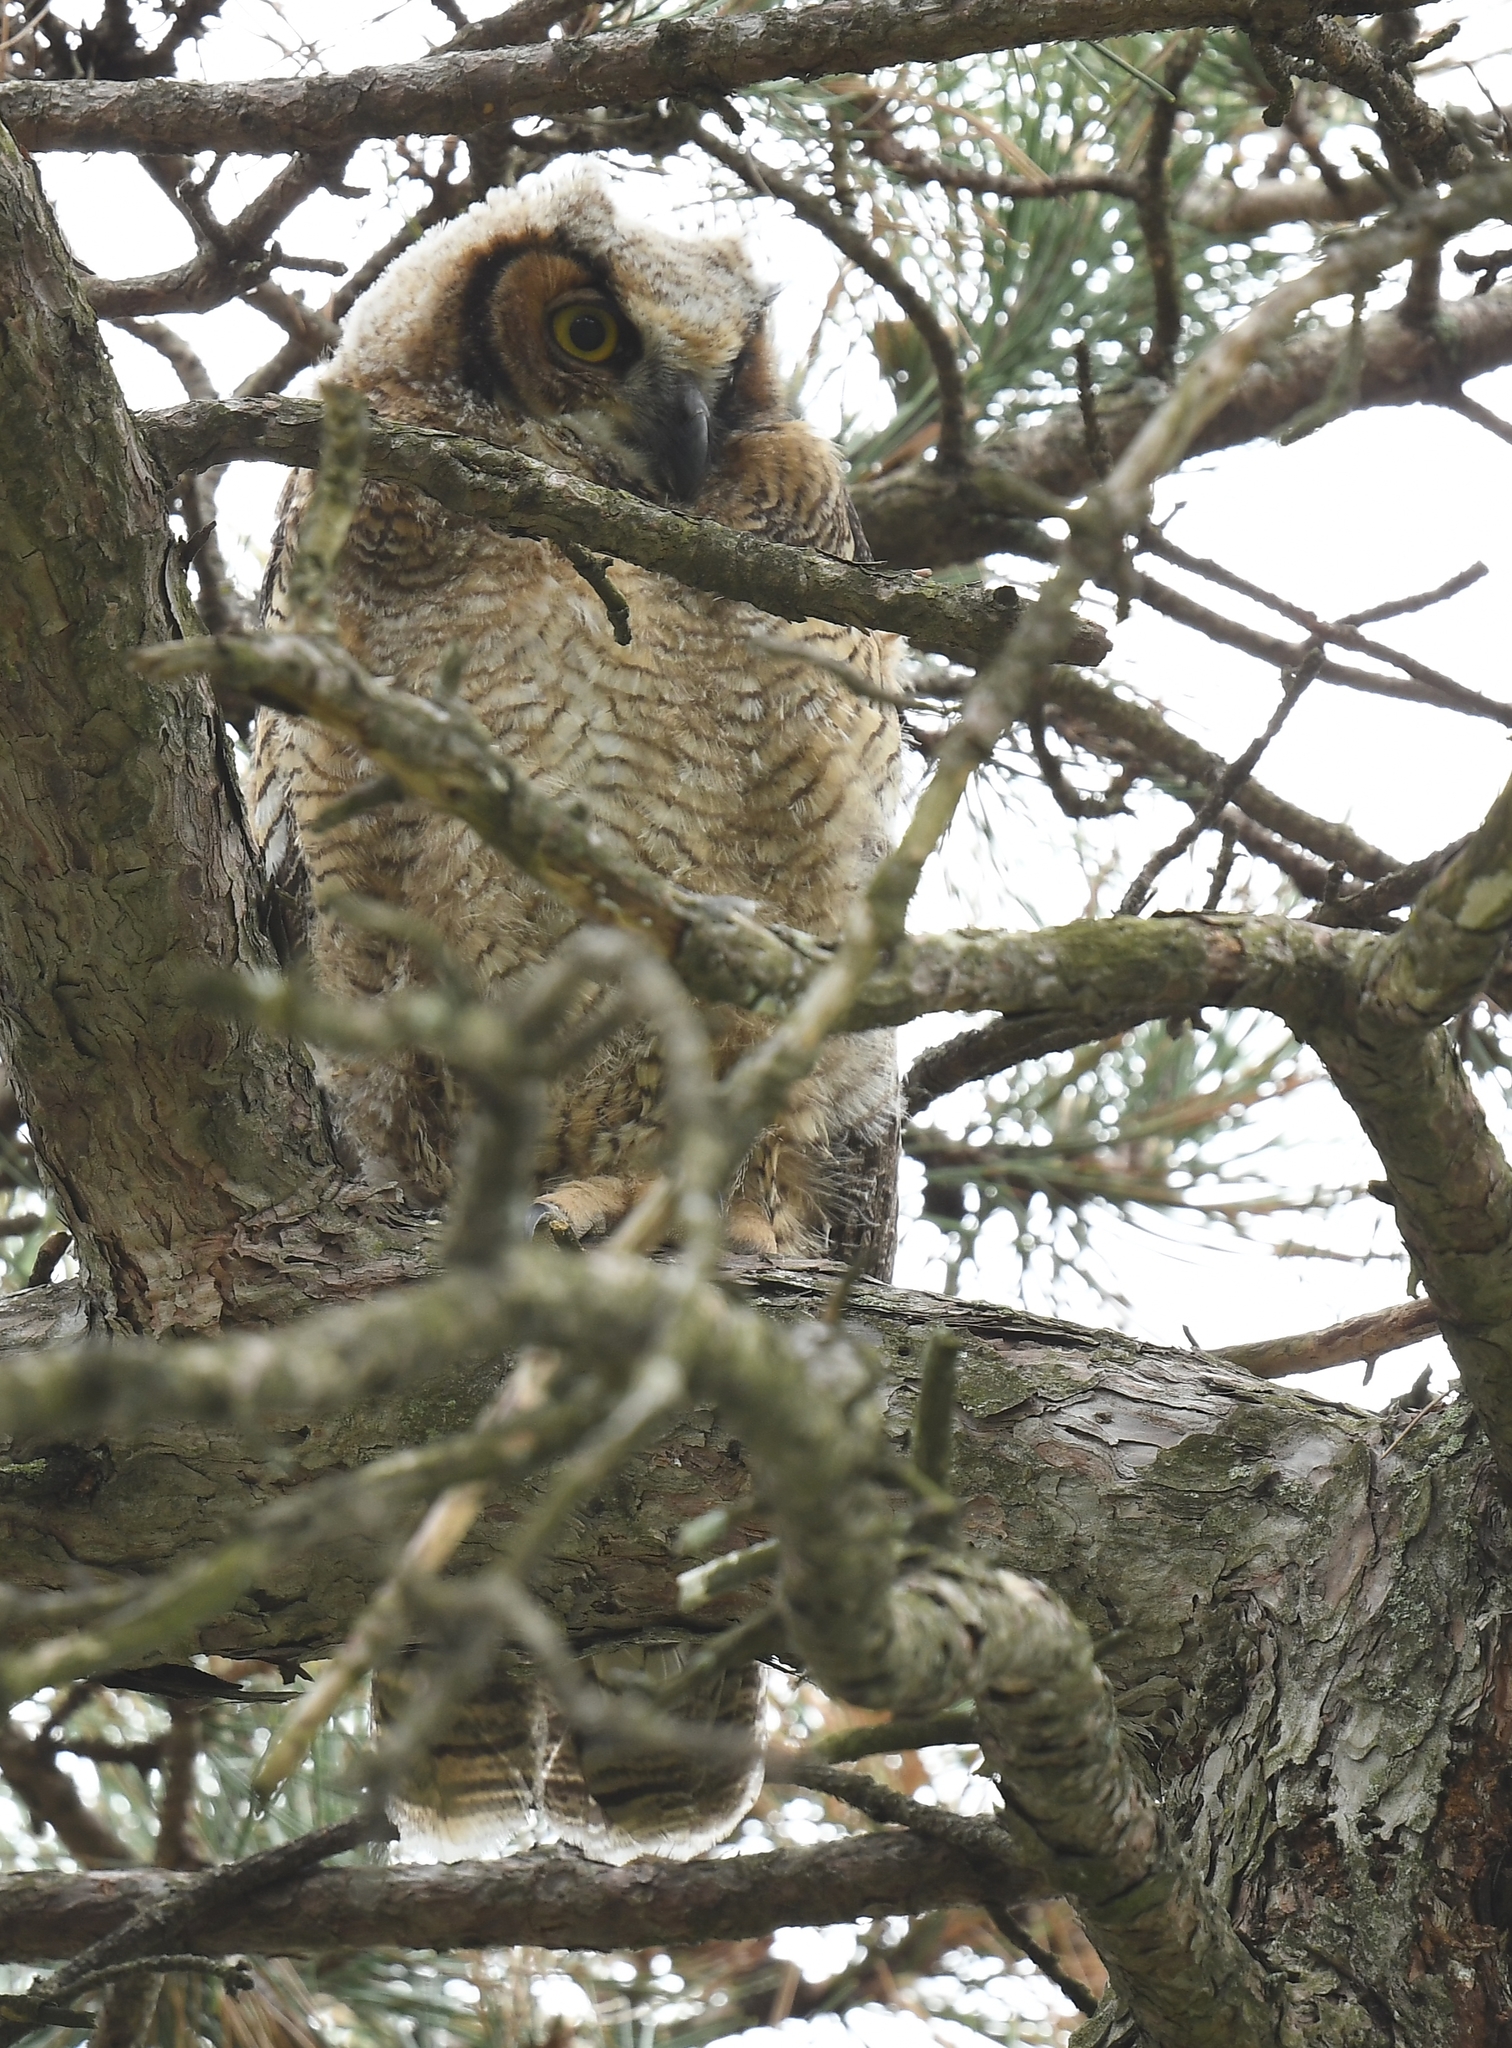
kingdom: Animalia
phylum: Chordata
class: Aves
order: Strigiformes
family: Strigidae
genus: Bubo
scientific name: Bubo virginianus
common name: Great horned owl
